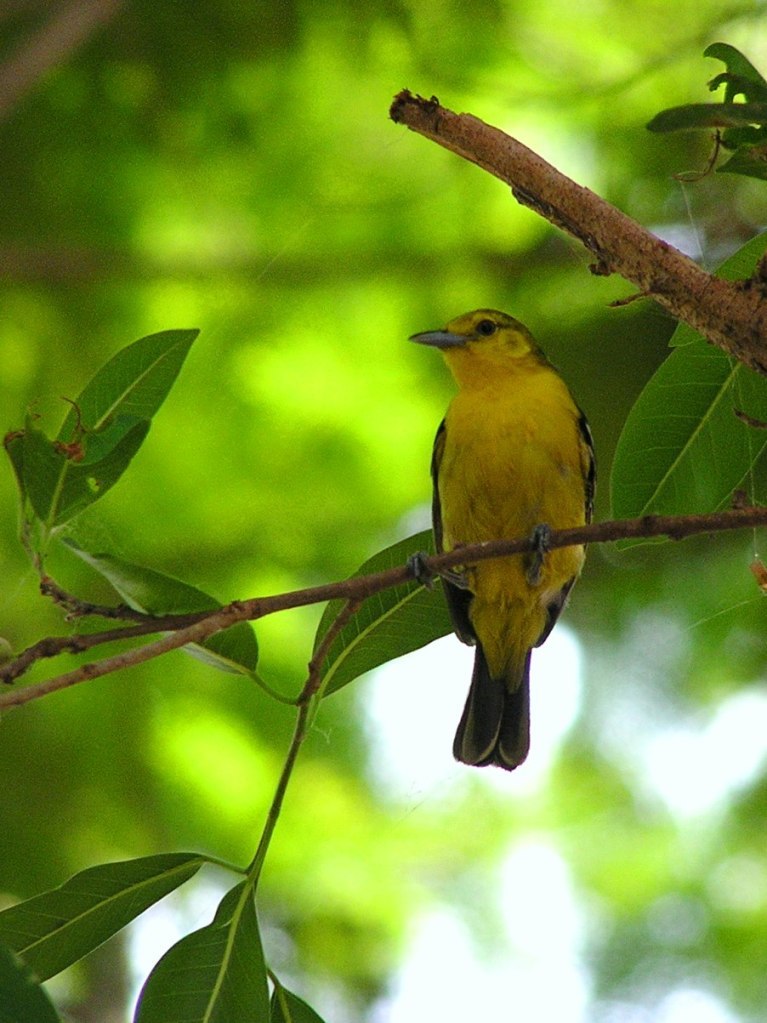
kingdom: Animalia
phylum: Chordata
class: Aves
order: Passeriformes
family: Aegithinidae
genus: Aegithina
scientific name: Aegithina tiphia
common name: Common iora
